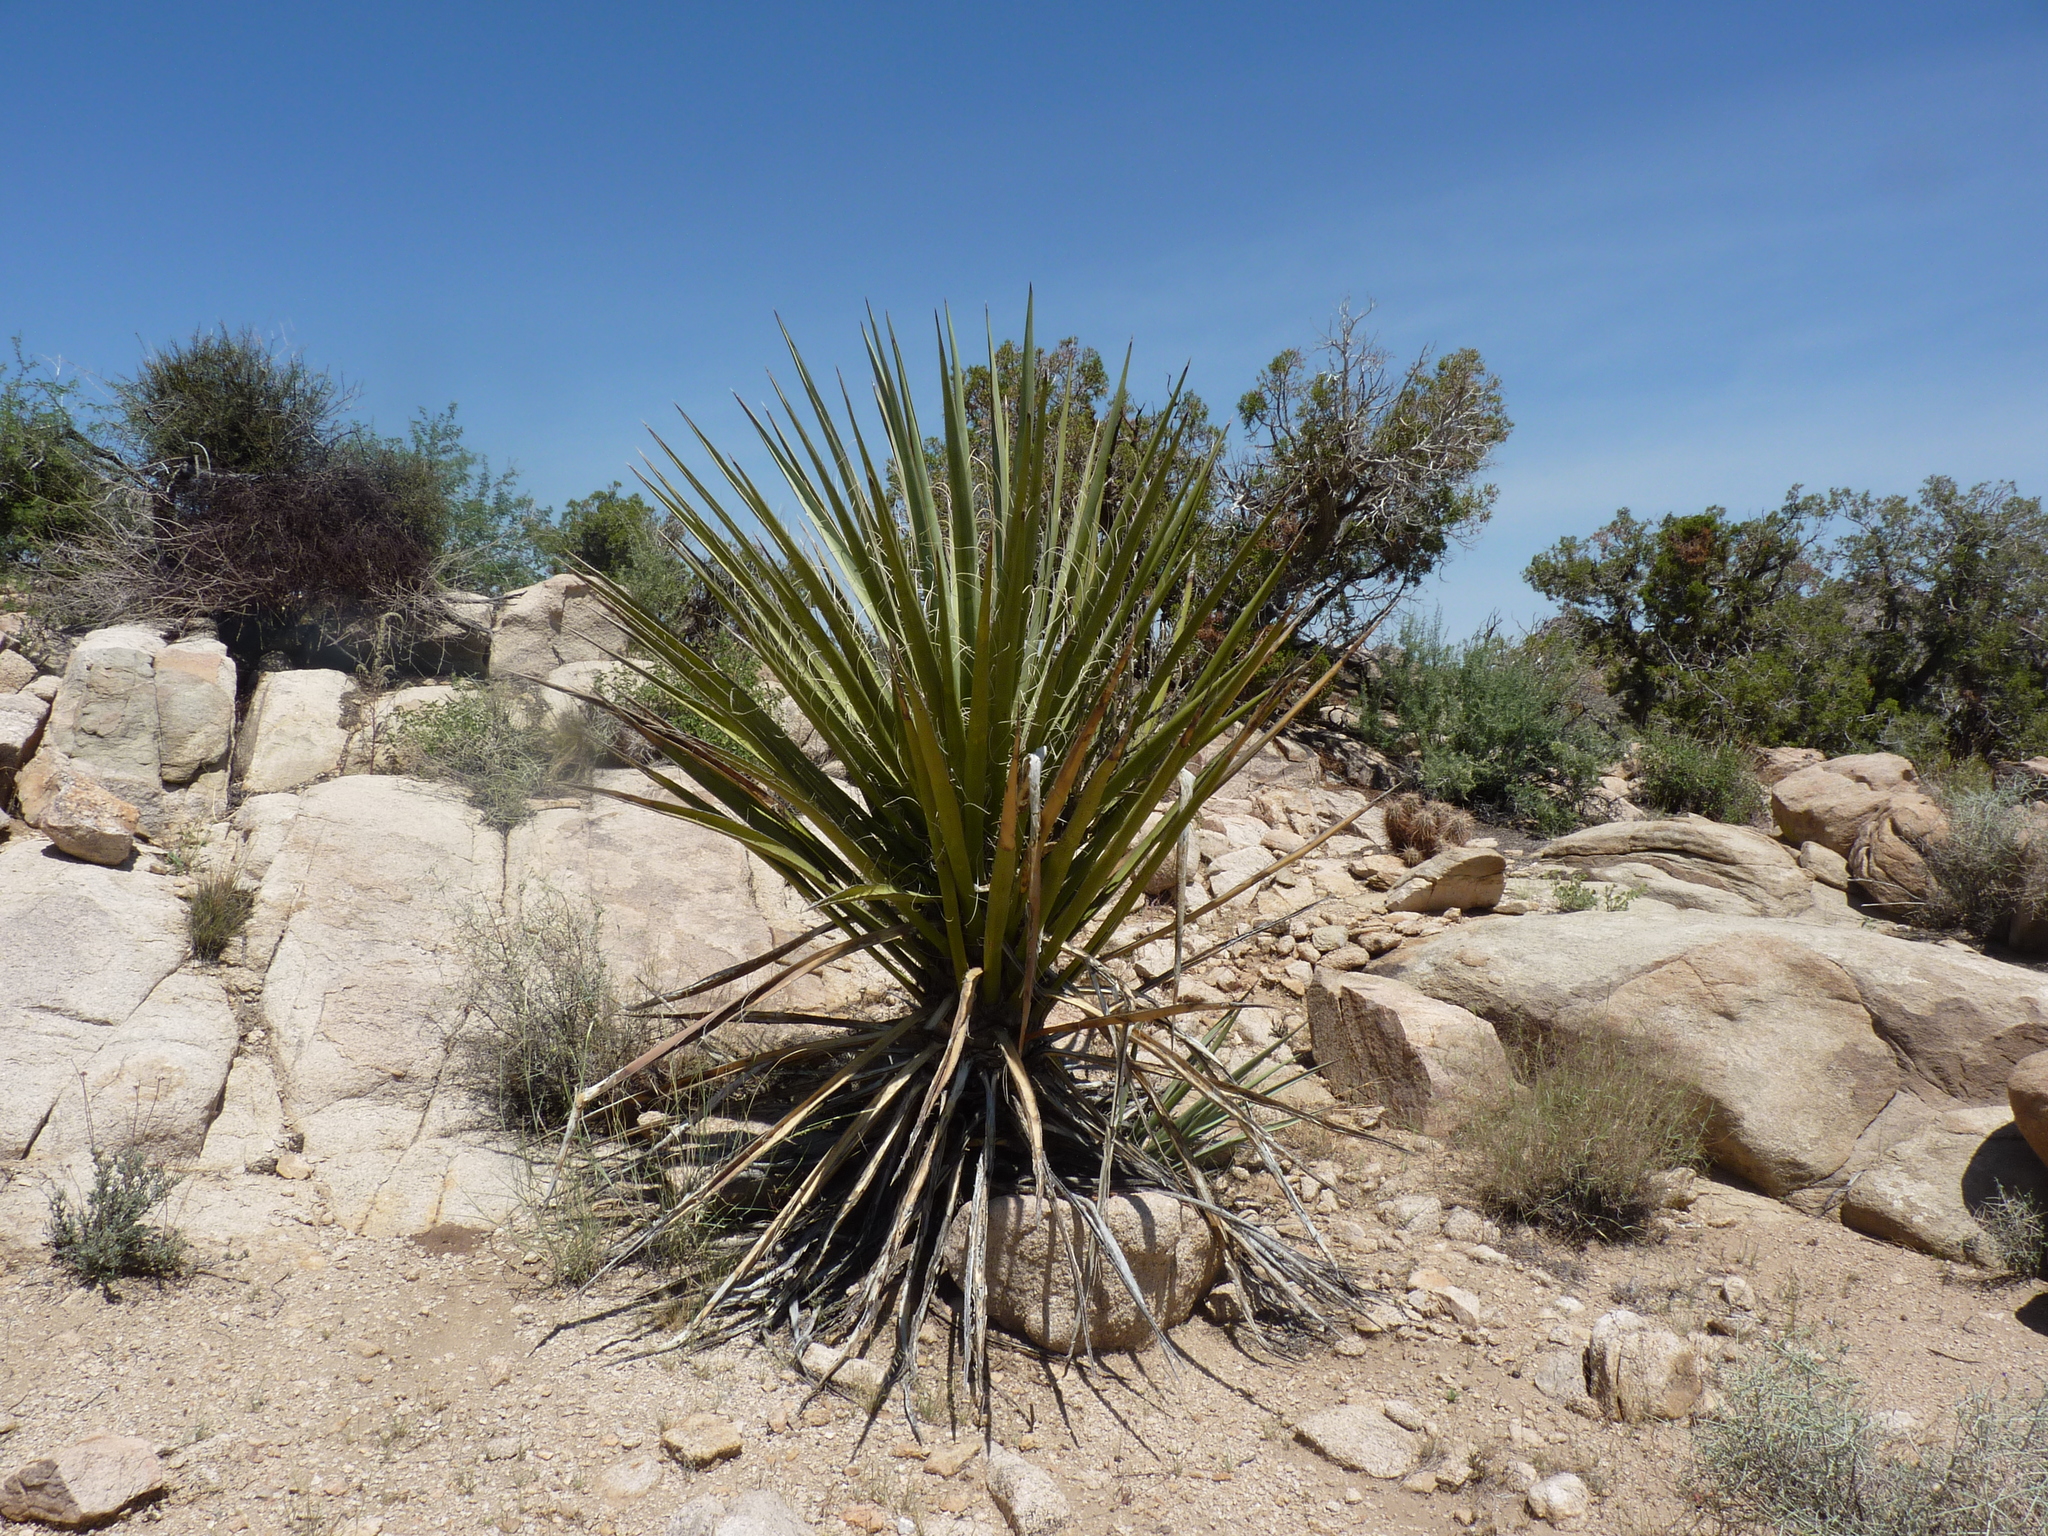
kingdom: Plantae
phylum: Tracheophyta
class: Liliopsida
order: Asparagales
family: Asparagaceae
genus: Yucca
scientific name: Yucca schidigera
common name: Mojave yucca
